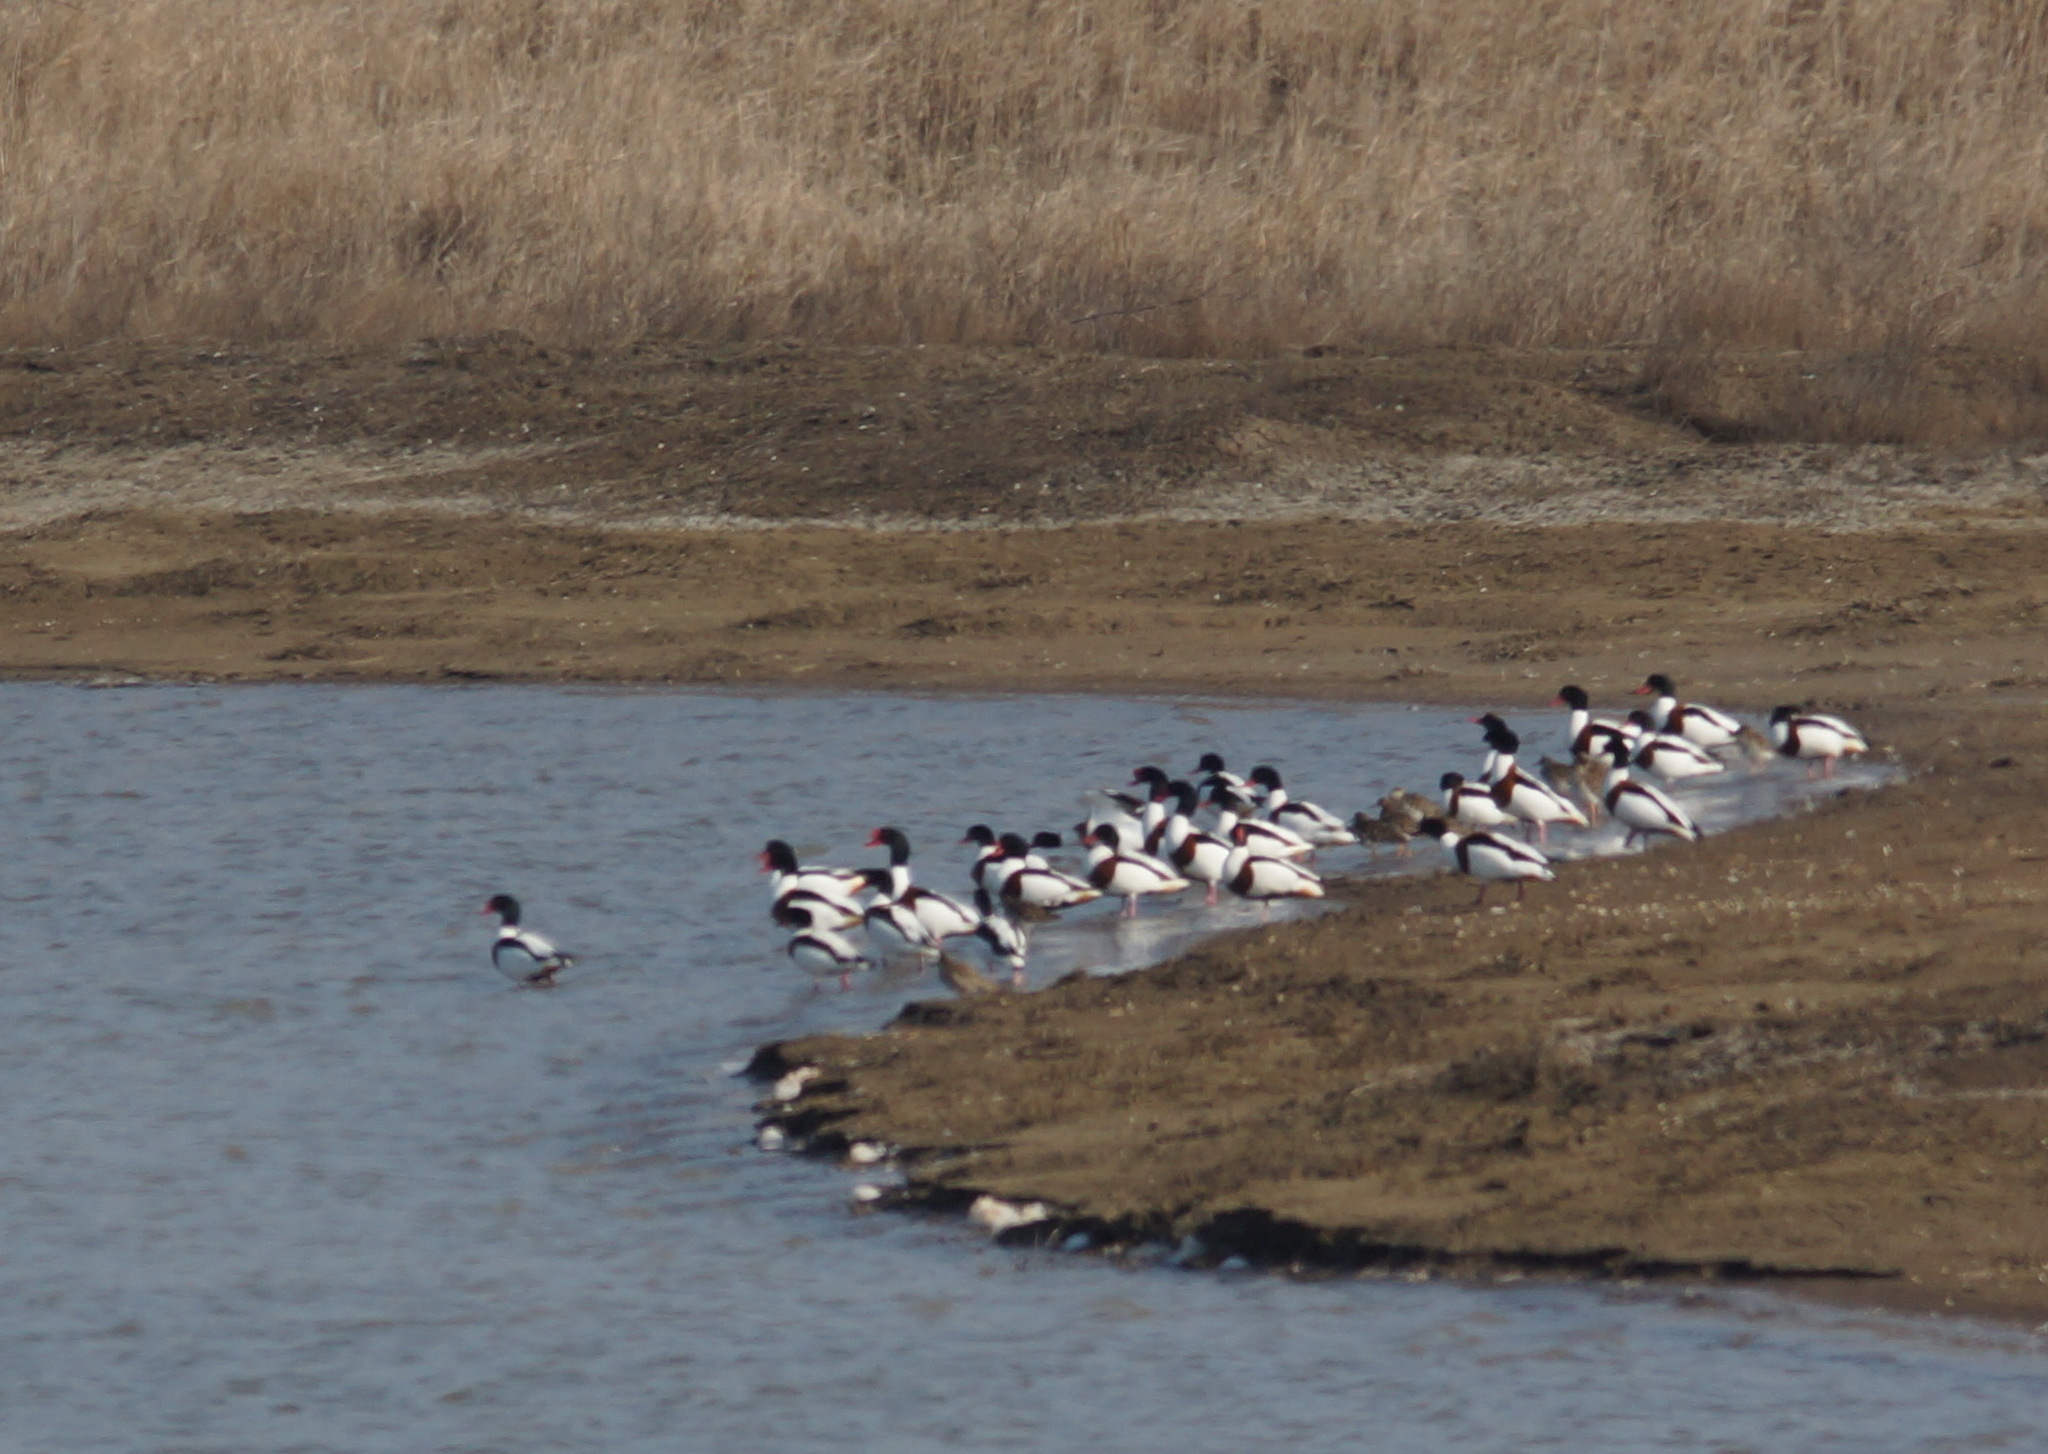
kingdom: Animalia
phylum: Chordata
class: Aves
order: Charadriiformes
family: Scolopacidae
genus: Calidris
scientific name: Calidris pugnax
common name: Ruff
